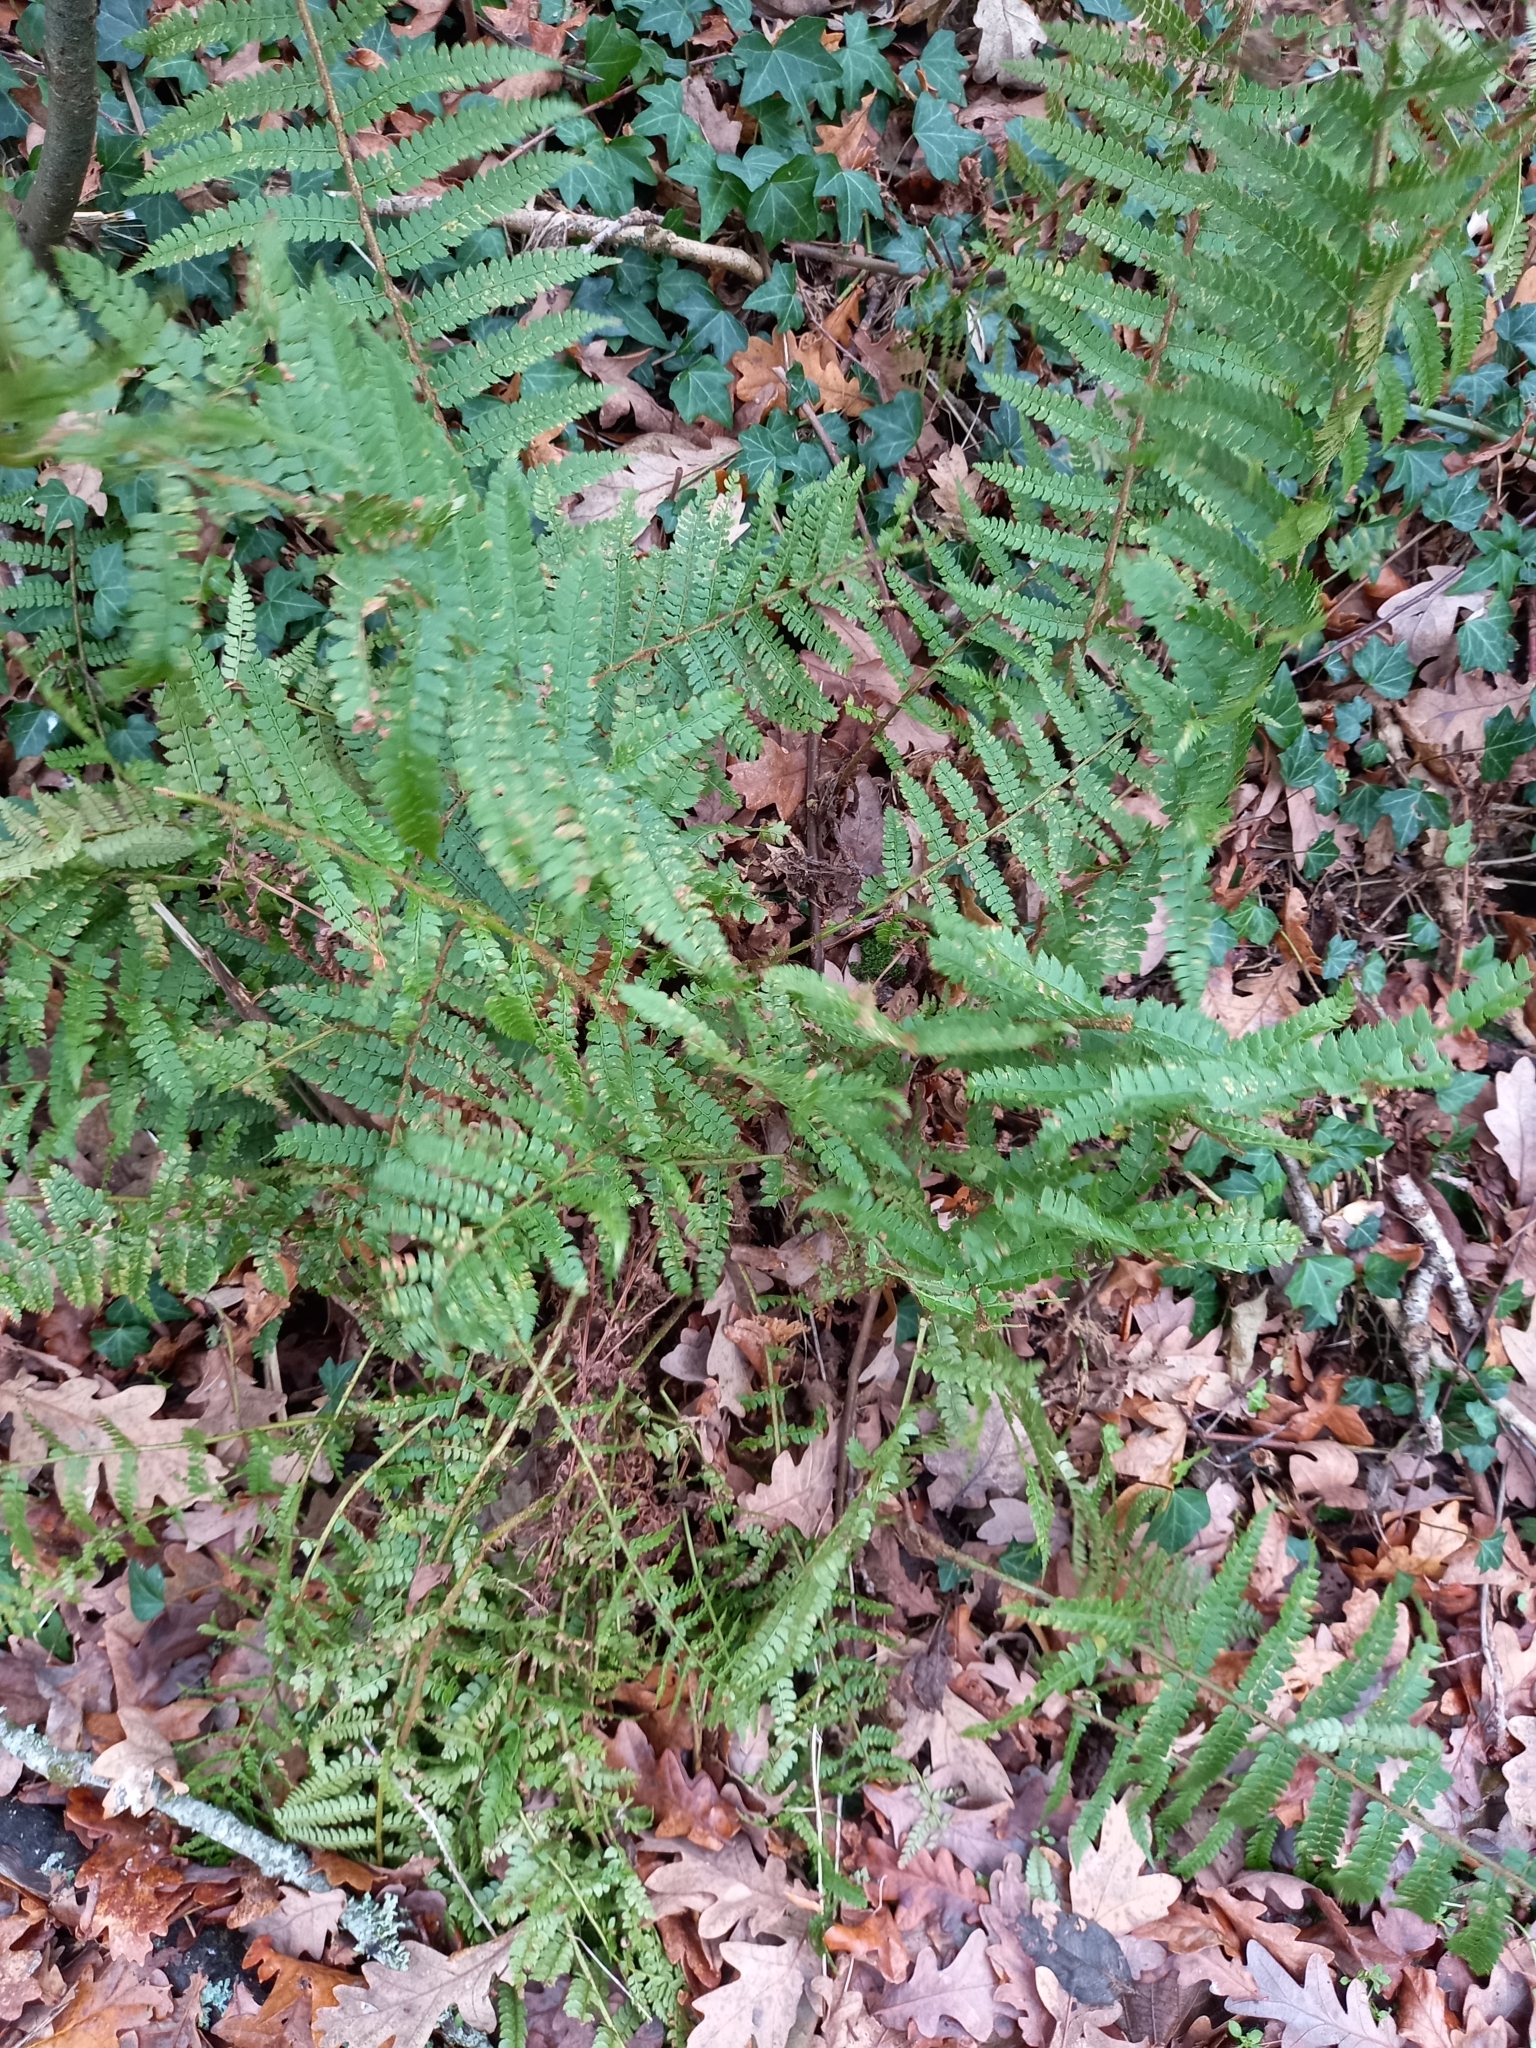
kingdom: Plantae
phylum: Tracheophyta
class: Polypodiopsida
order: Polypodiales
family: Dryopteridaceae
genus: Polystichum
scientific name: Polystichum setiferum
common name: Soft shield-fern
